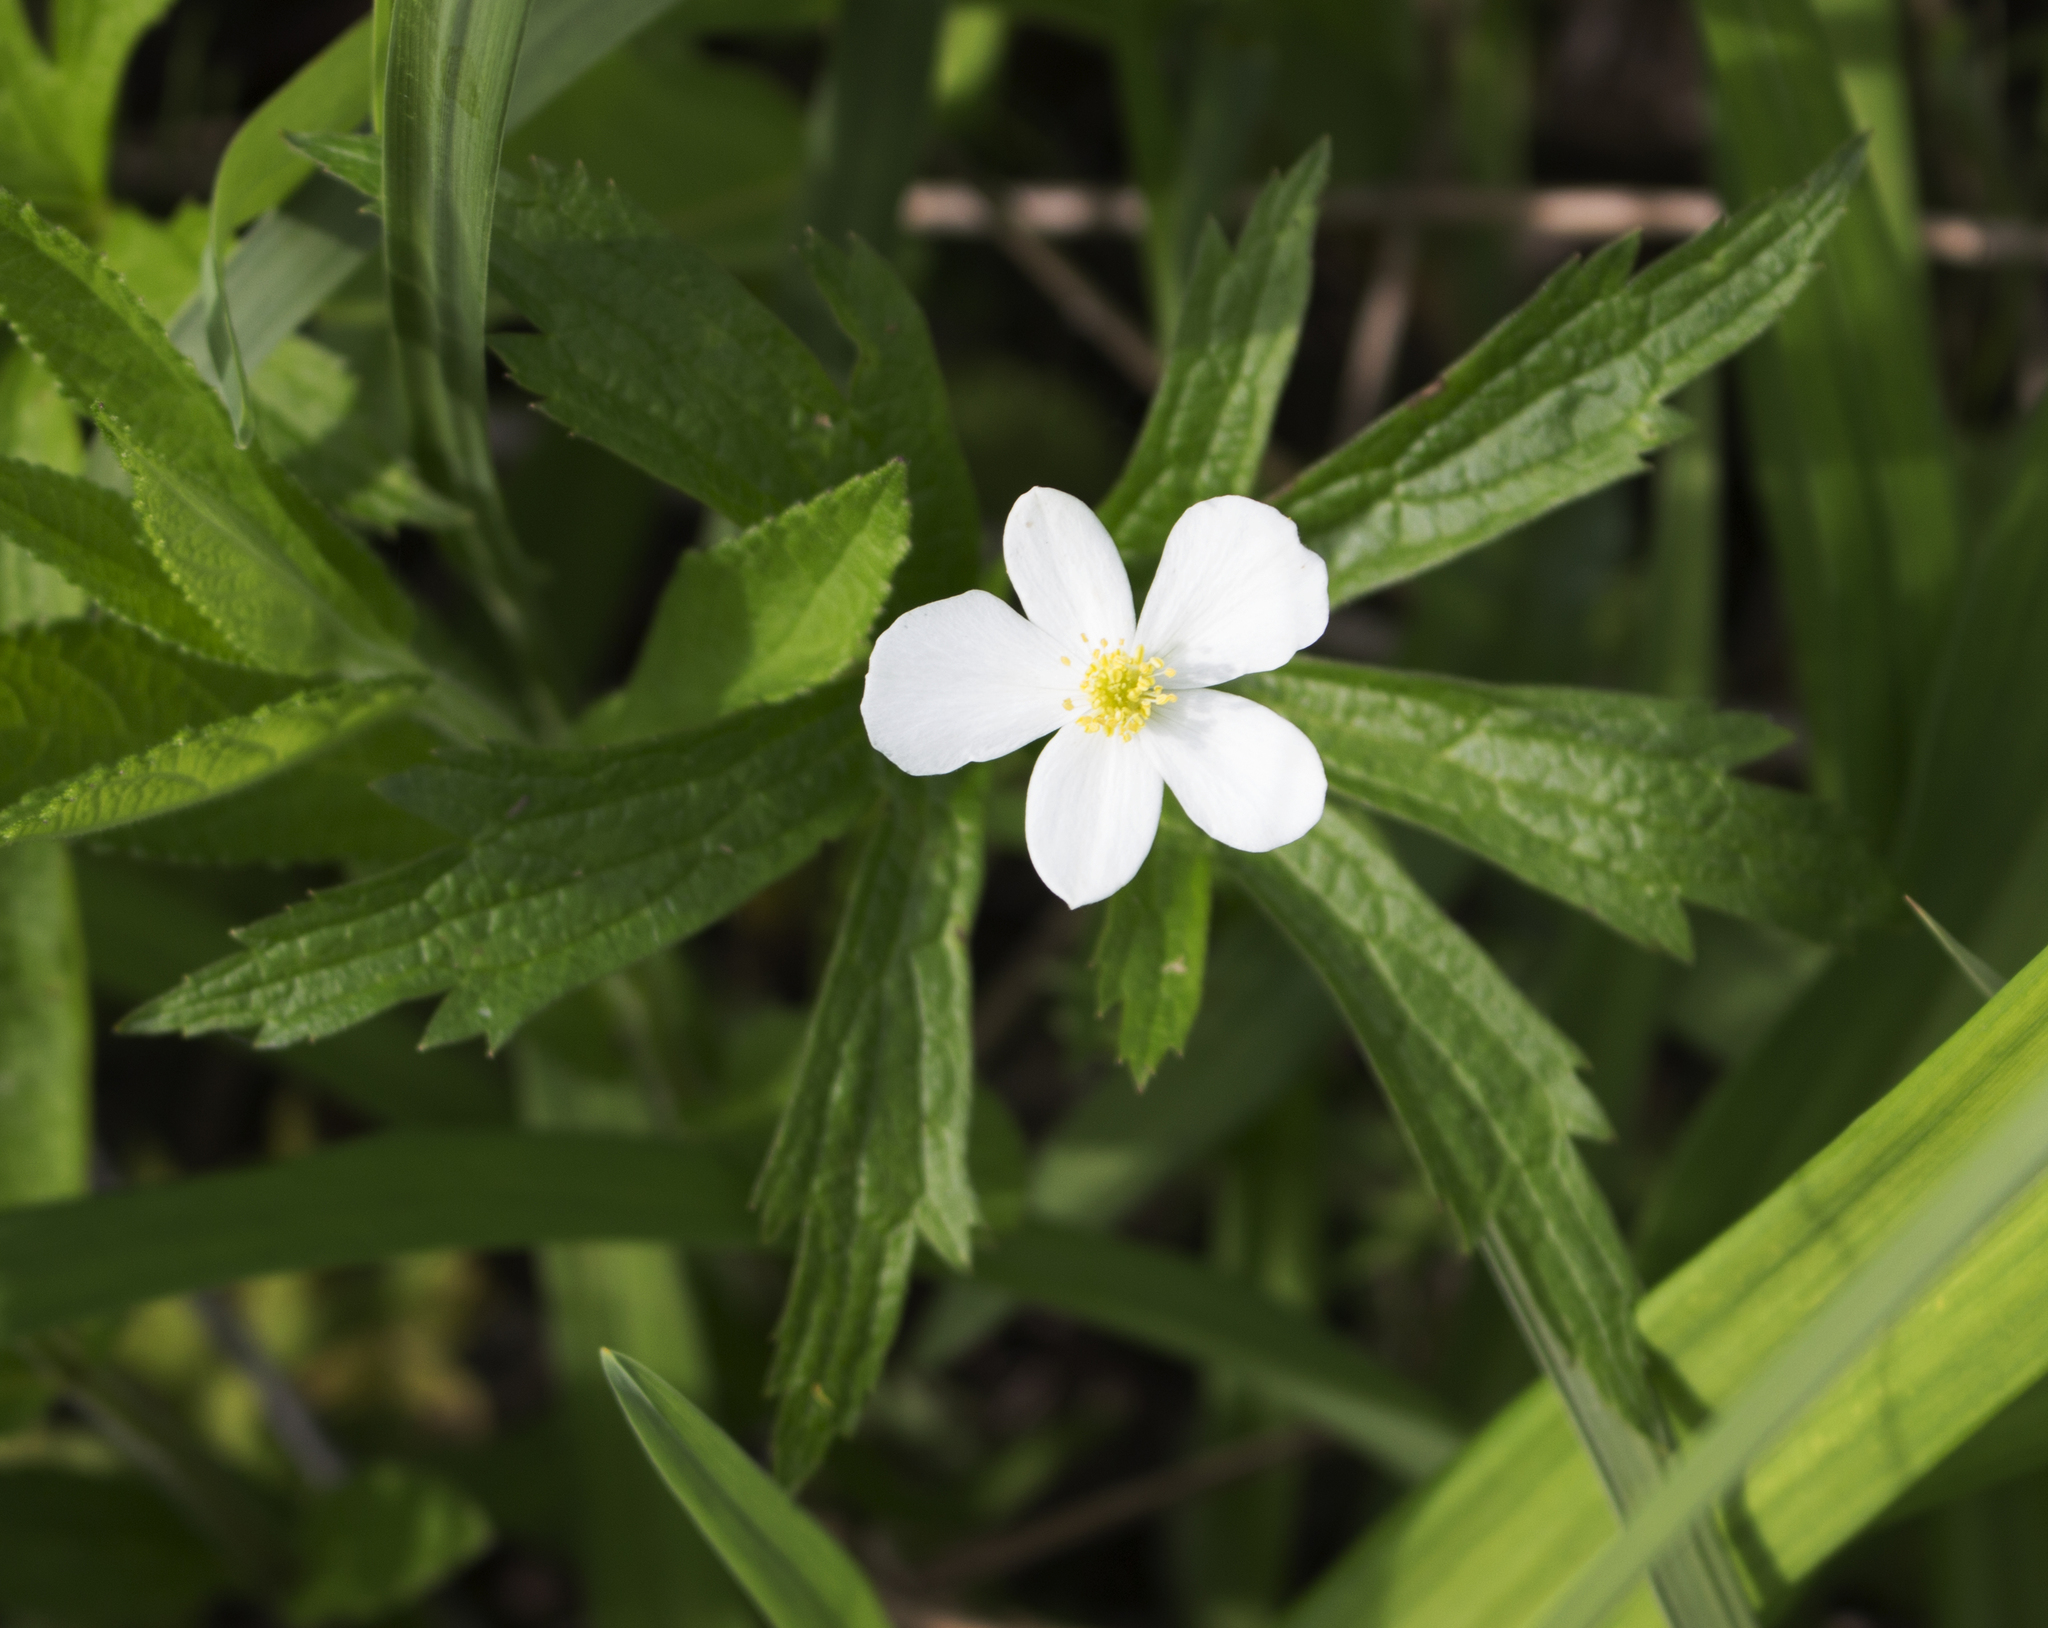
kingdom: Plantae
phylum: Tracheophyta
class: Magnoliopsida
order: Ranunculales
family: Ranunculaceae
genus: Anemonastrum
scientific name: Anemonastrum canadense
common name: Canada anemone
